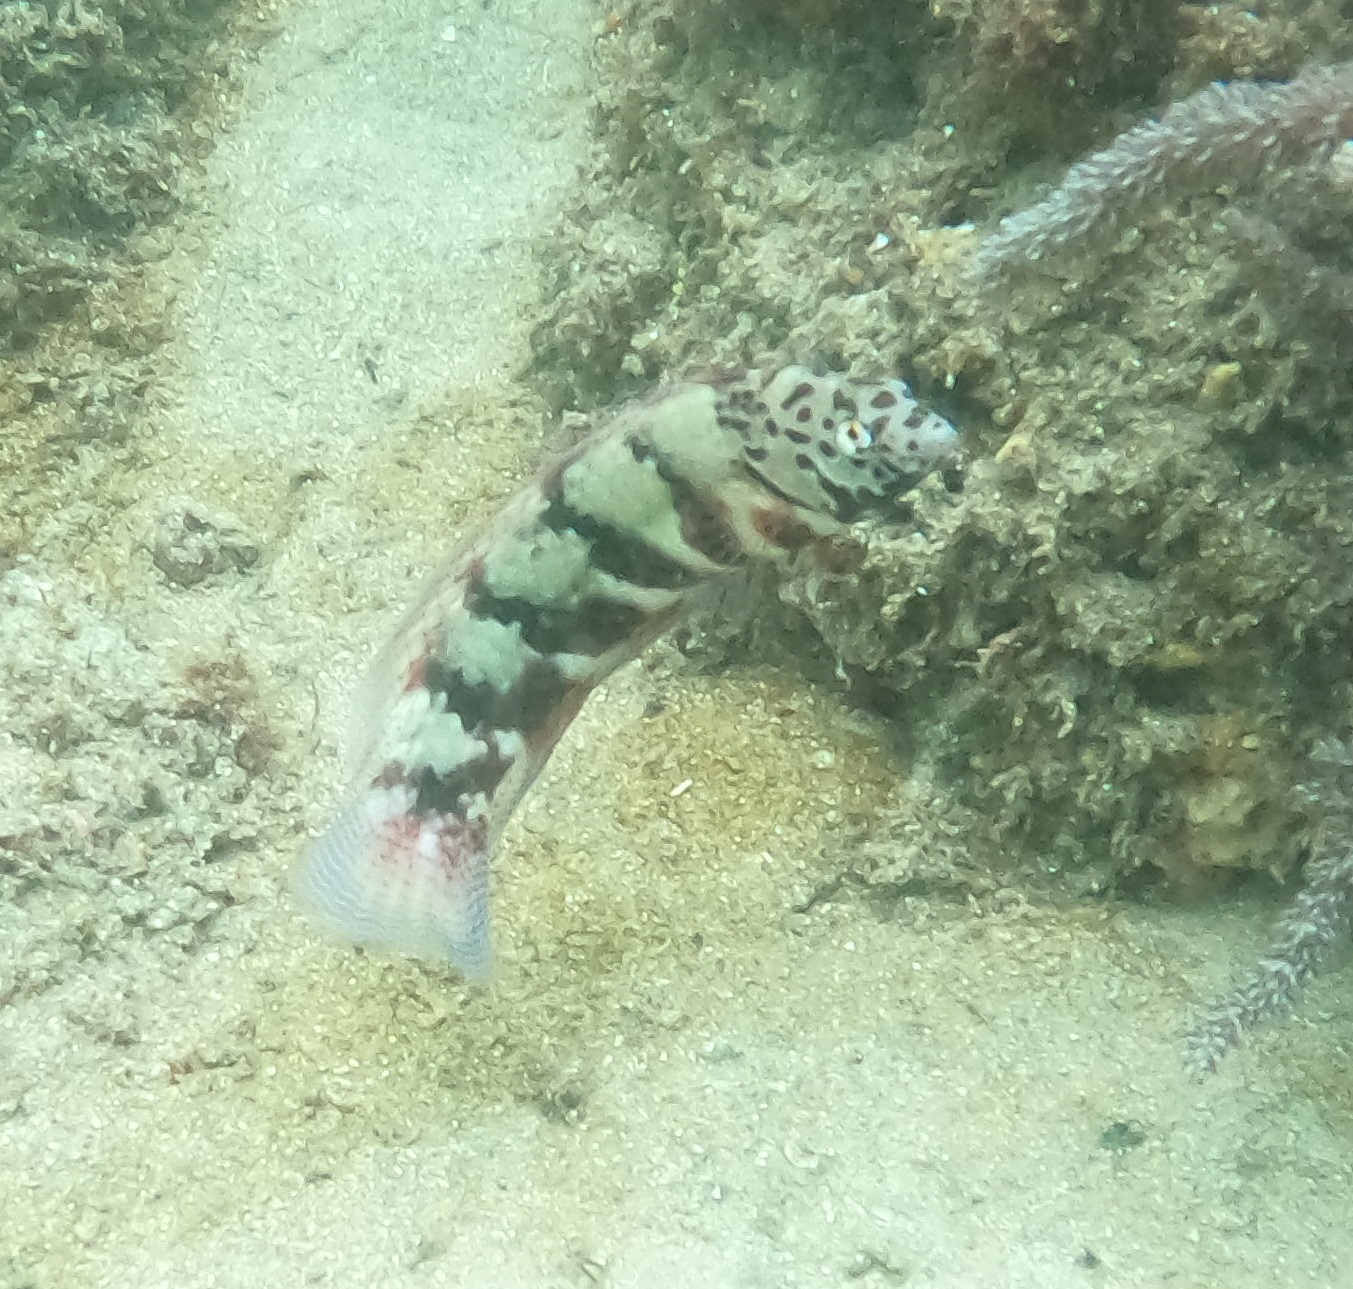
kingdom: Animalia
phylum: Chordata
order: Perciformes
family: Labridae
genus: Eupetrichthys
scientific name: Eupetrichthys angustipes
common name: Snake-skin wrasse
